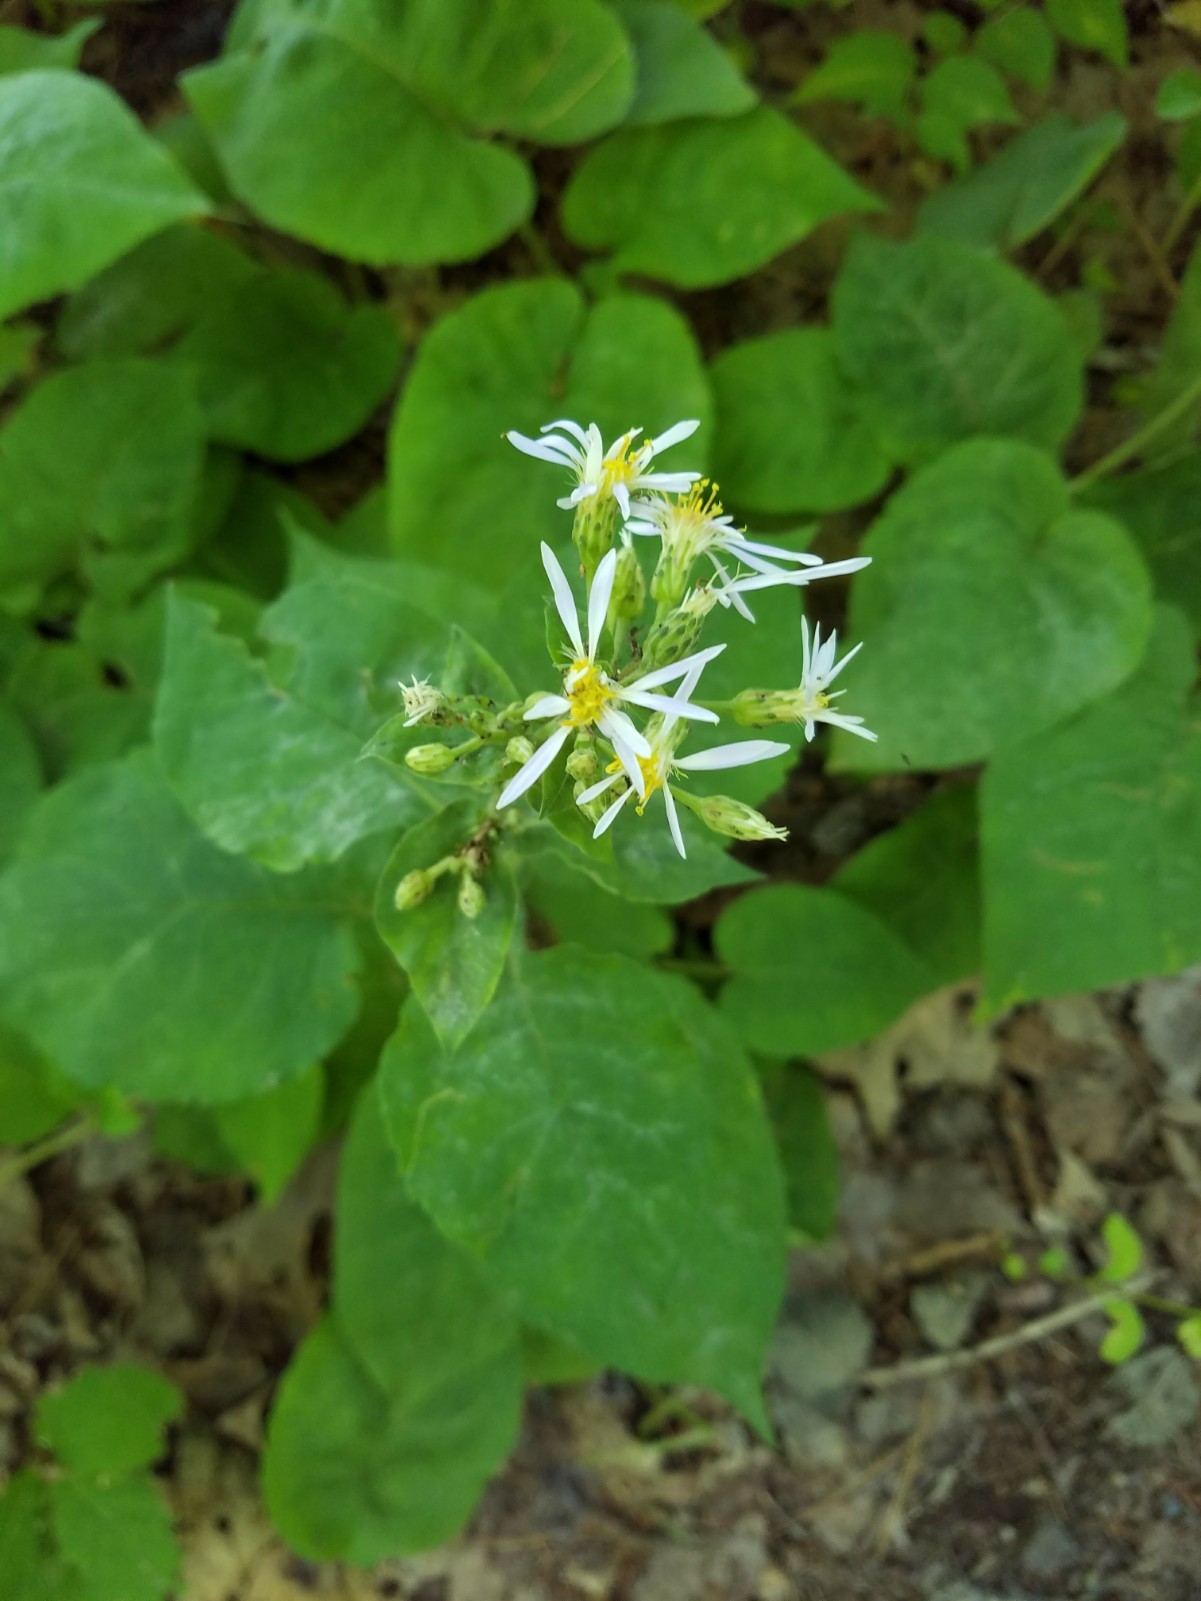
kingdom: Plantae
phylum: Tracheophyta
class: Magnoliopsida
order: Asterales
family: Asteraceae
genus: Eurybia
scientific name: Eurybia macrophylla
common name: Big-leaved aster
